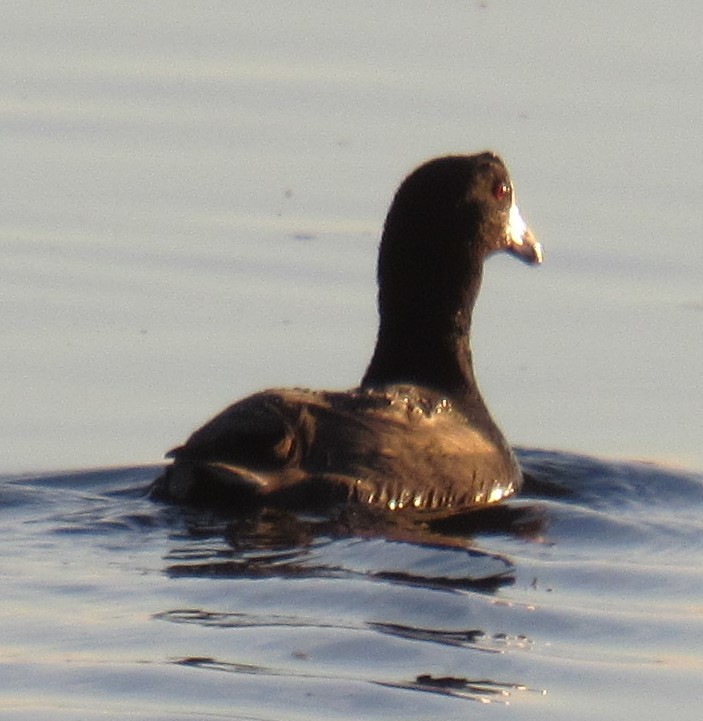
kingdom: Animalia
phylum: Chordata
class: Aves
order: Gruiformes
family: Rallidae
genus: Fulica
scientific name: Fulica americana
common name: American coot
